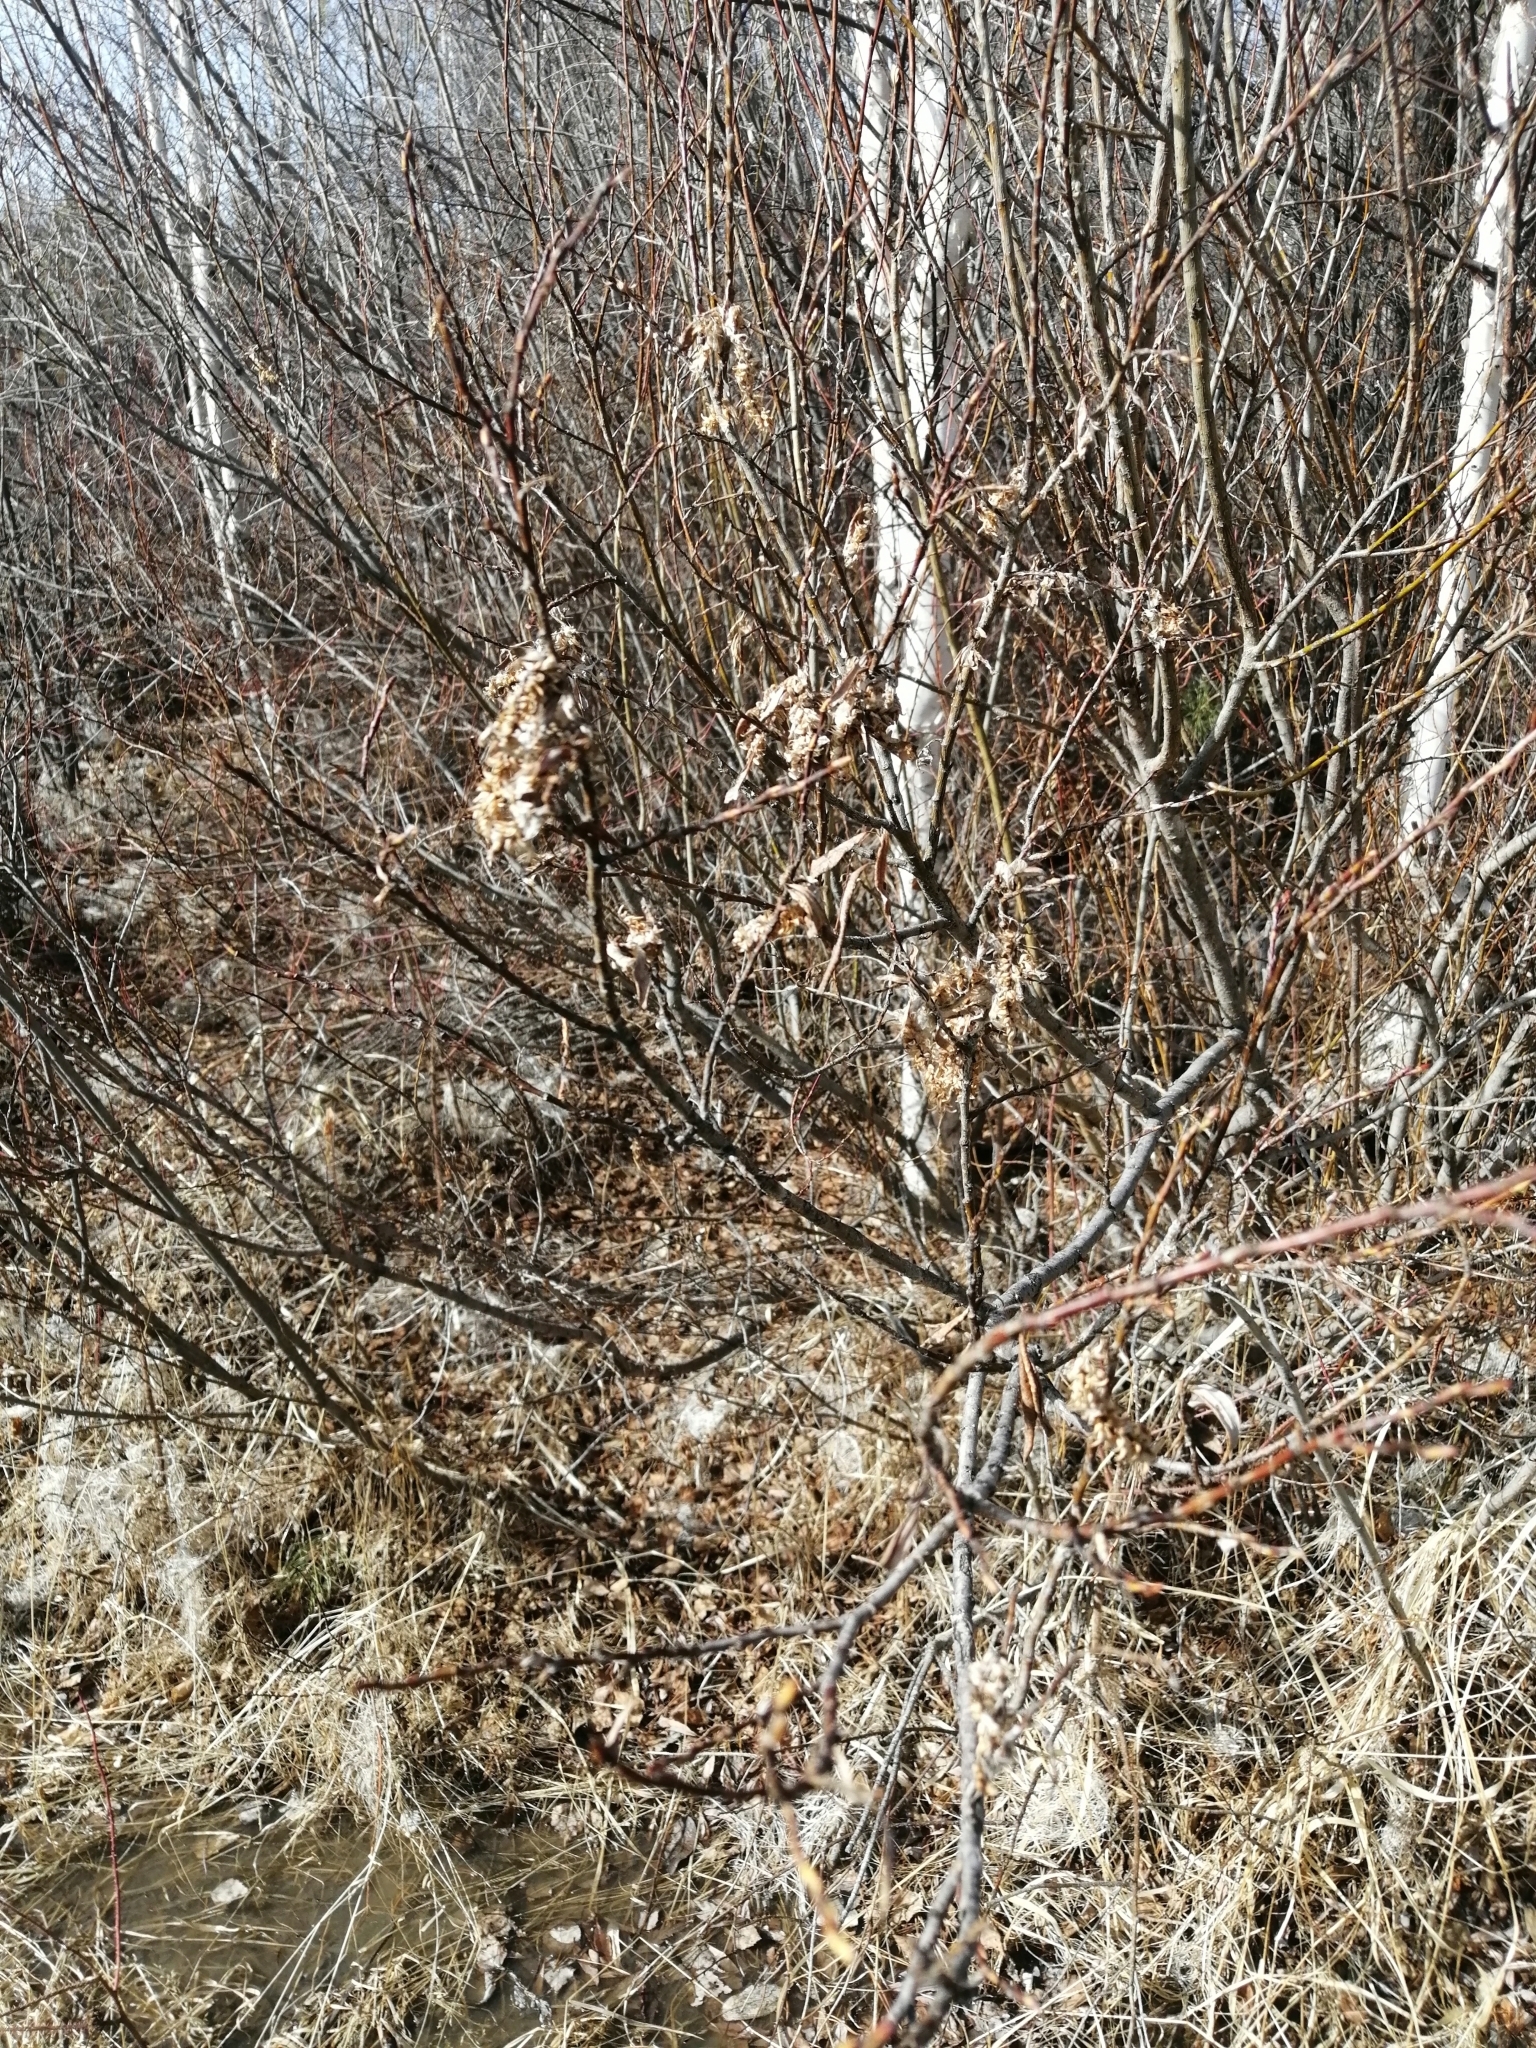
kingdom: Plantae
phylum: Tracheophyta
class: Magnoliopsida
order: Malpighiales
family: Salicaceae
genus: Salix
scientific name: Salix pseudopentandra
